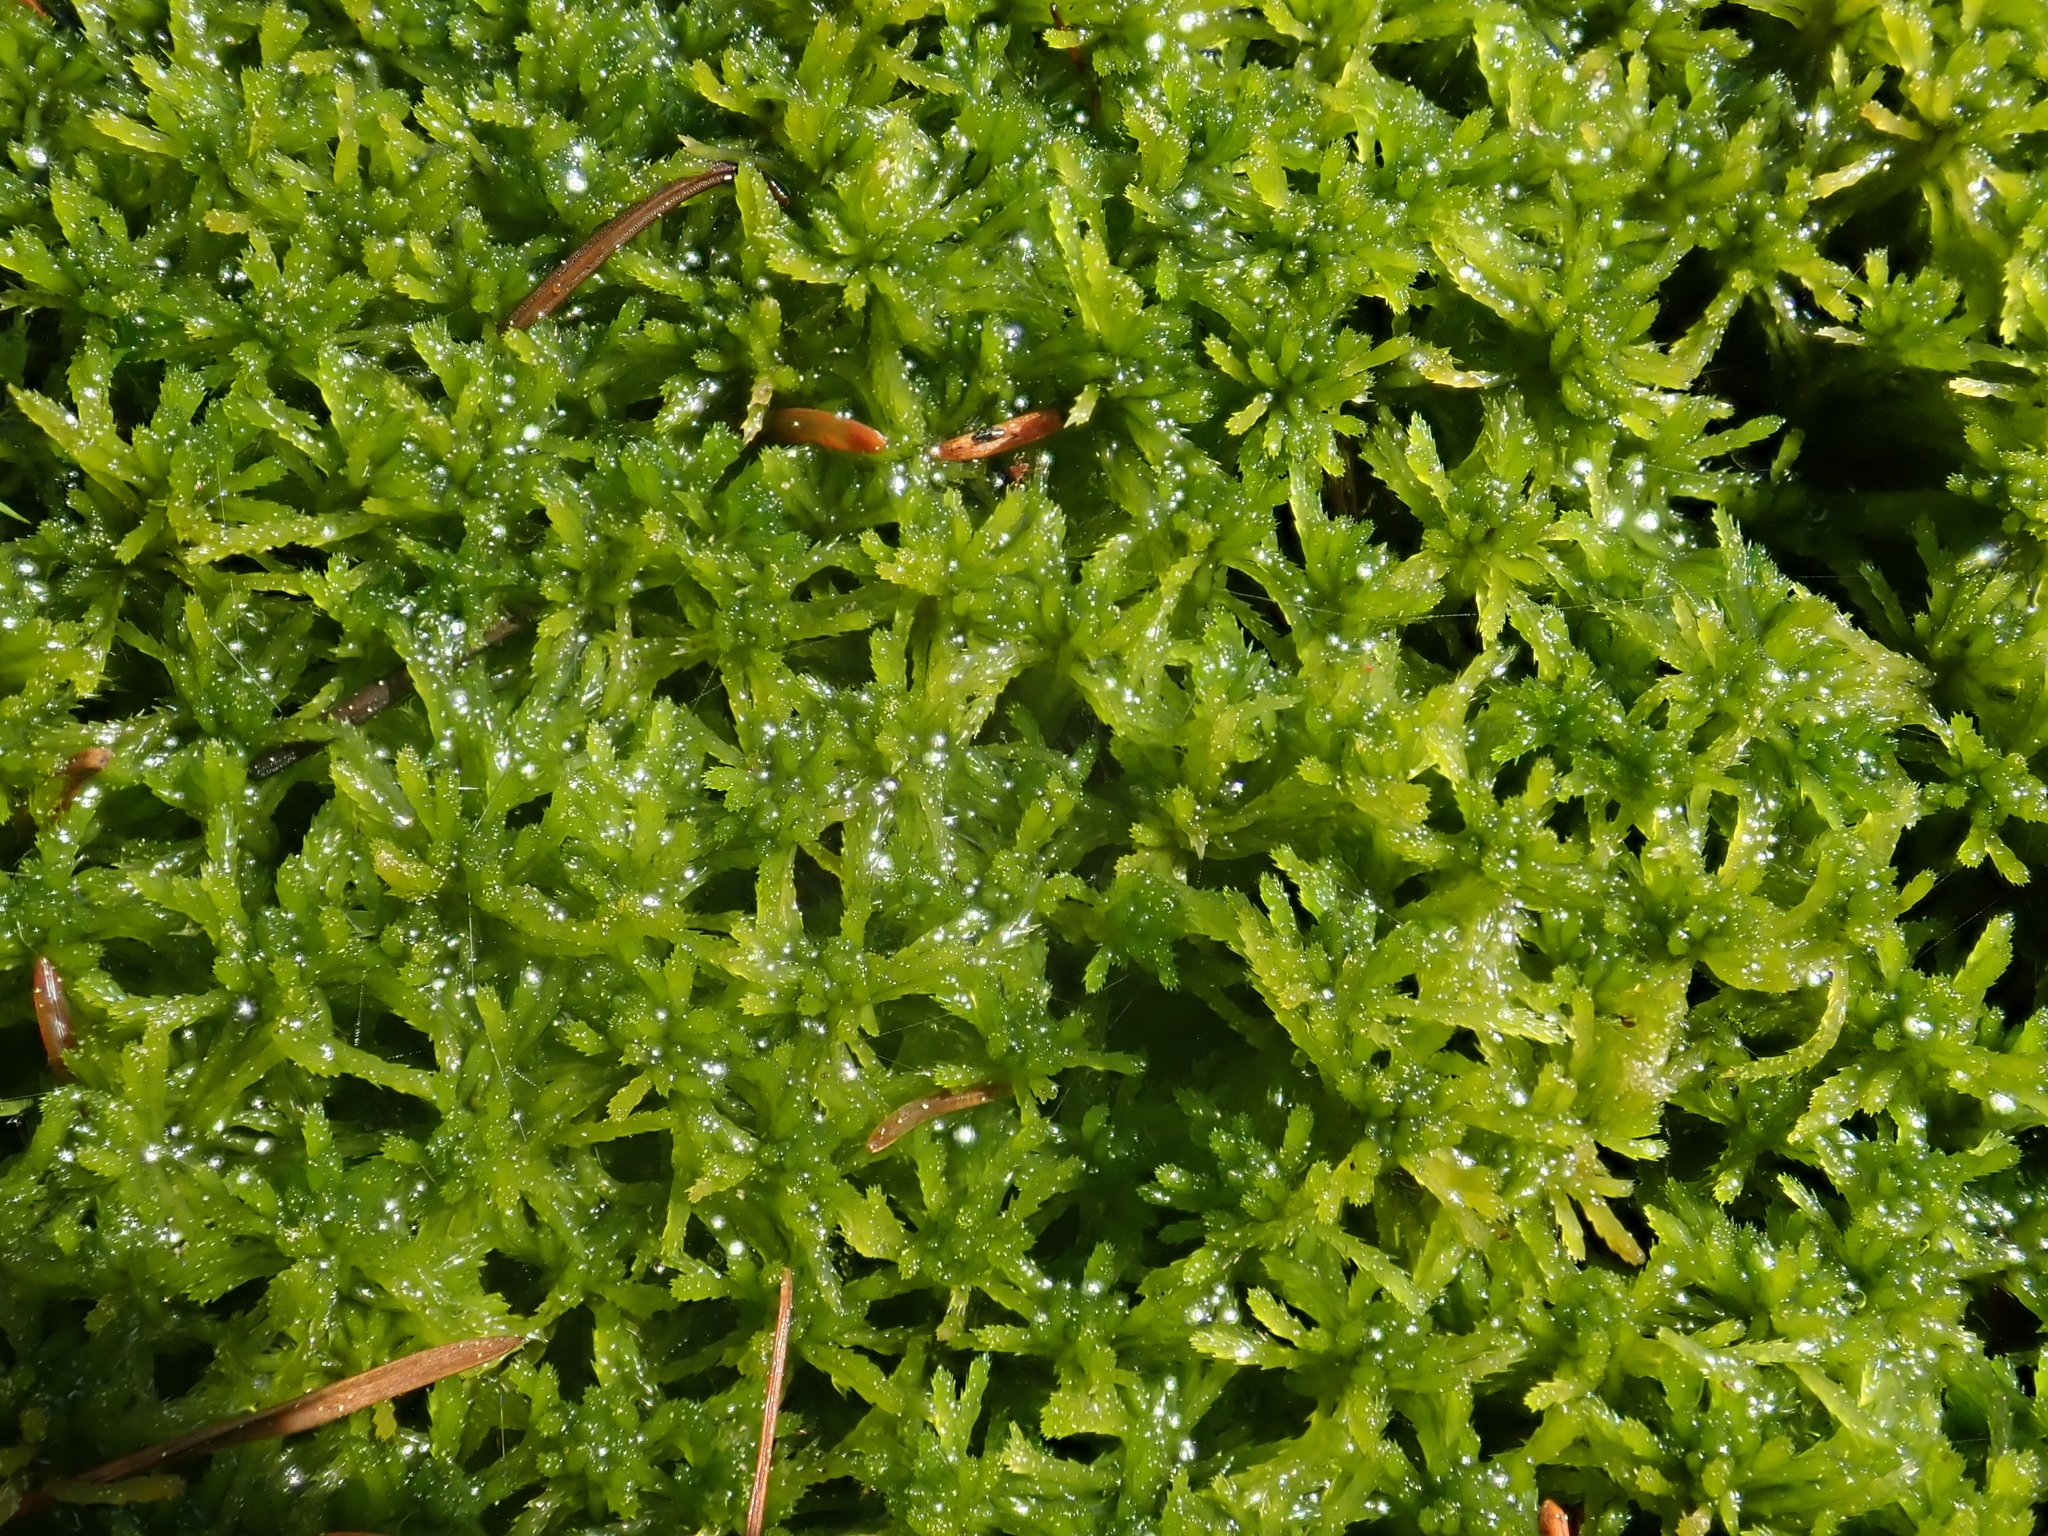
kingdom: Plantae
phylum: Bryophyta
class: Sphagnopsida
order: Sphagnales
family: Sphagnaceae
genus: Sphagnum
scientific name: Sphagnum girgensohnii
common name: Girgensohn's peat moss
